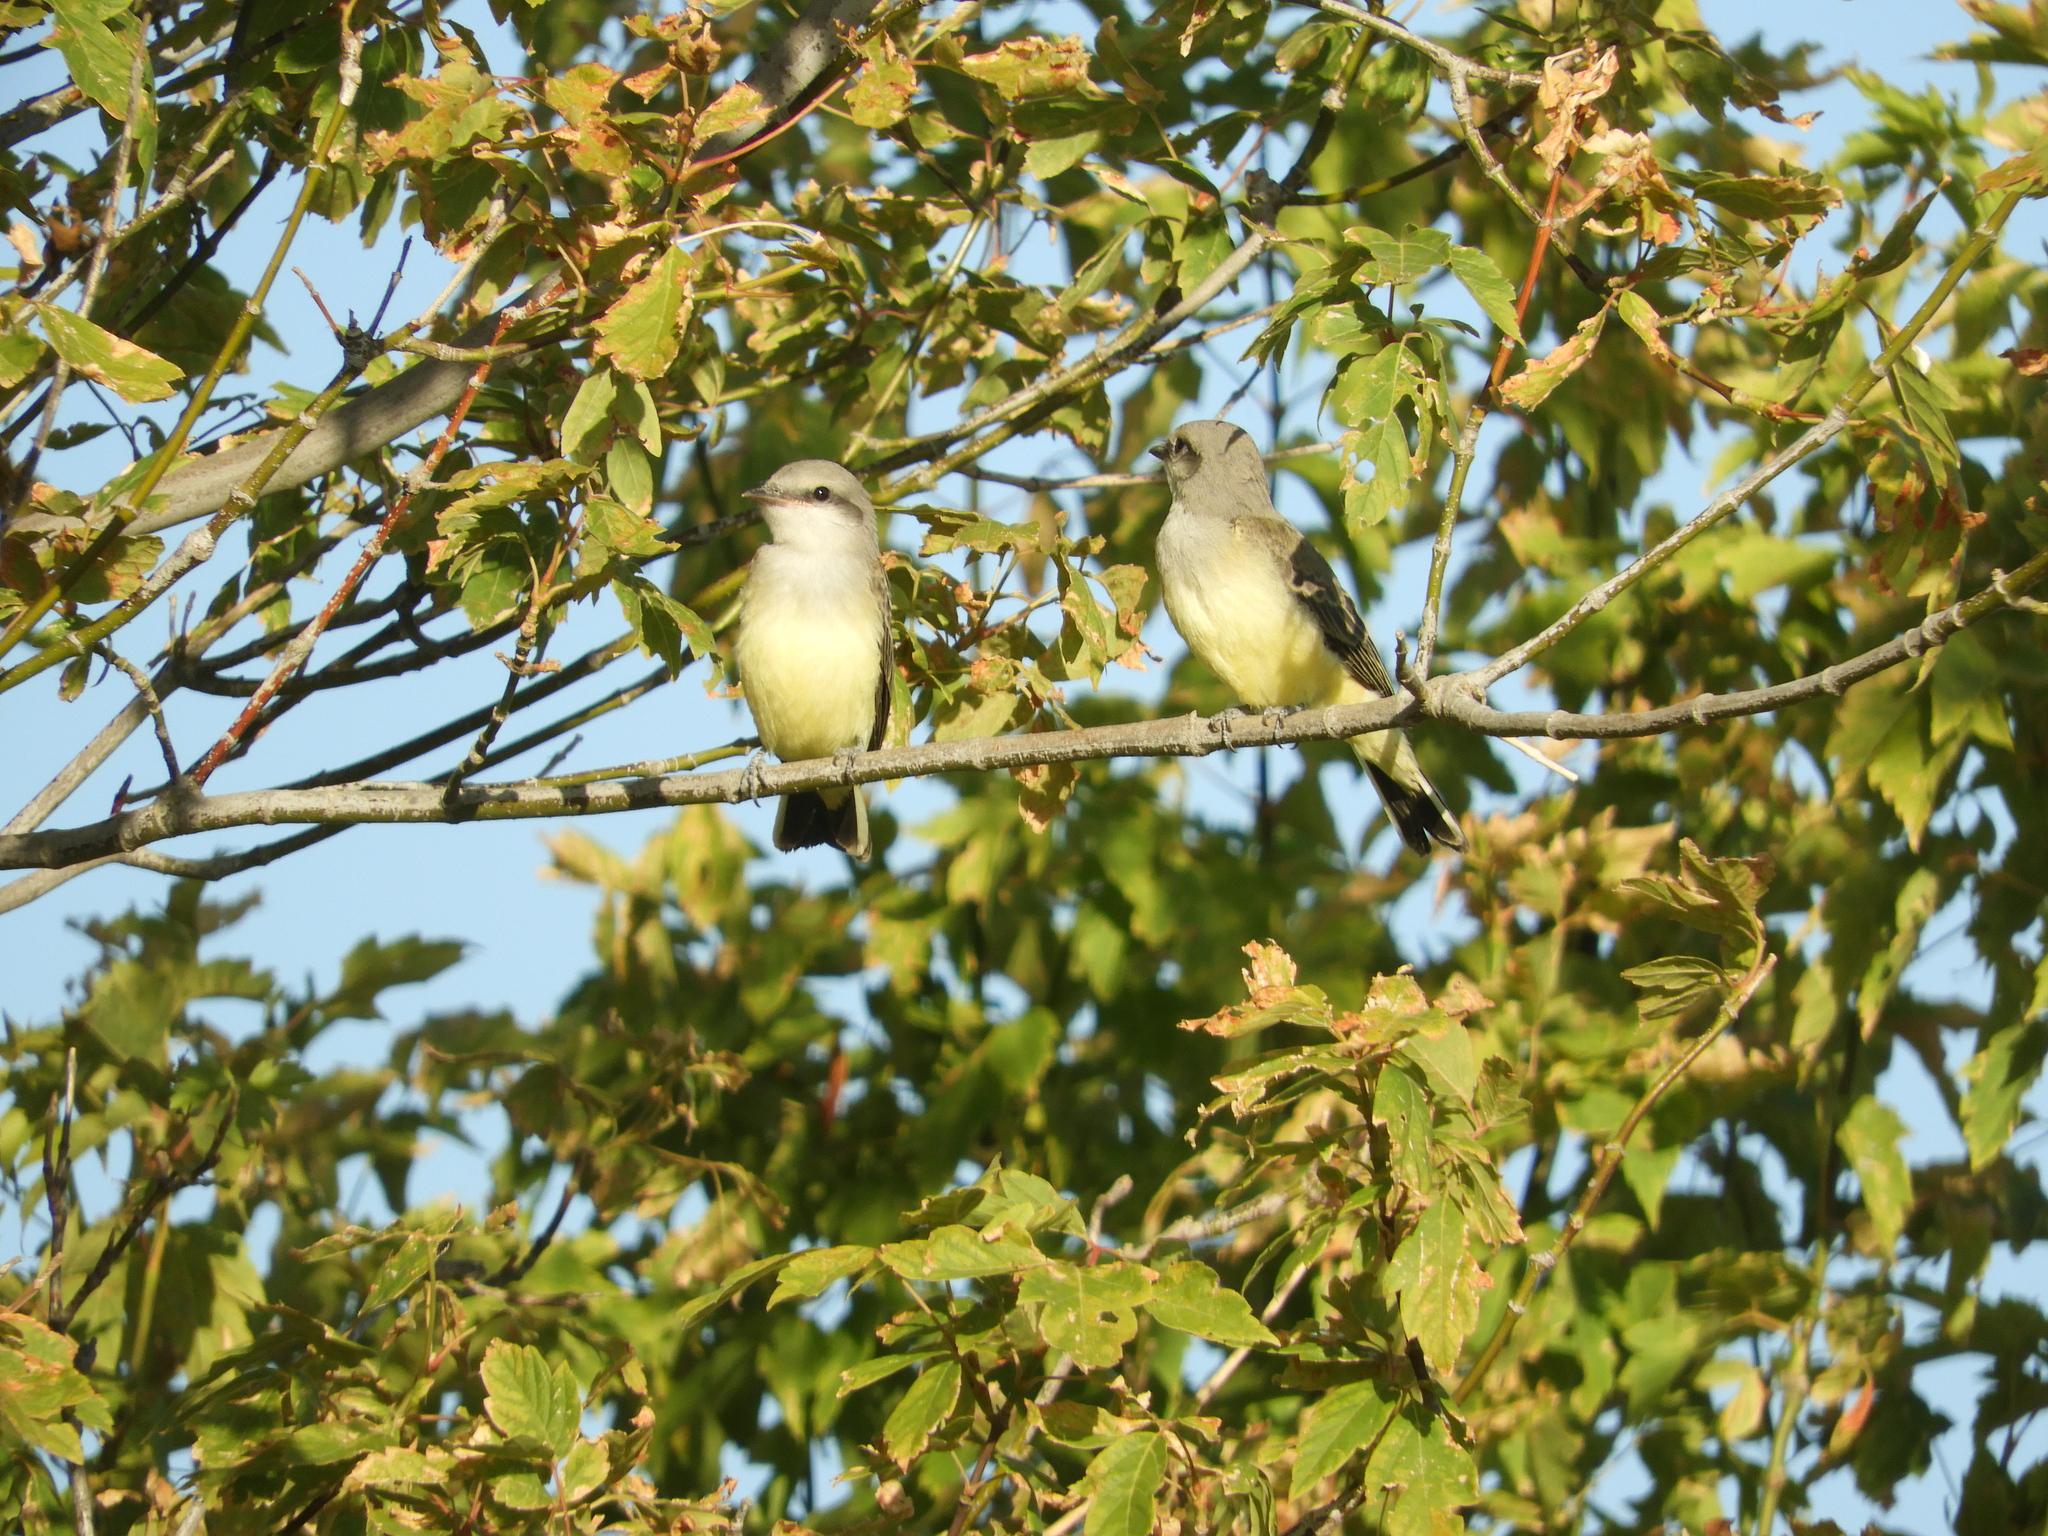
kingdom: Animalia
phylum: Chordata
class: Aves
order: Passeriformes
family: Tyrannidae
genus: Tyrannus
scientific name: Tyrannus verticalis
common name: Western kingbird
